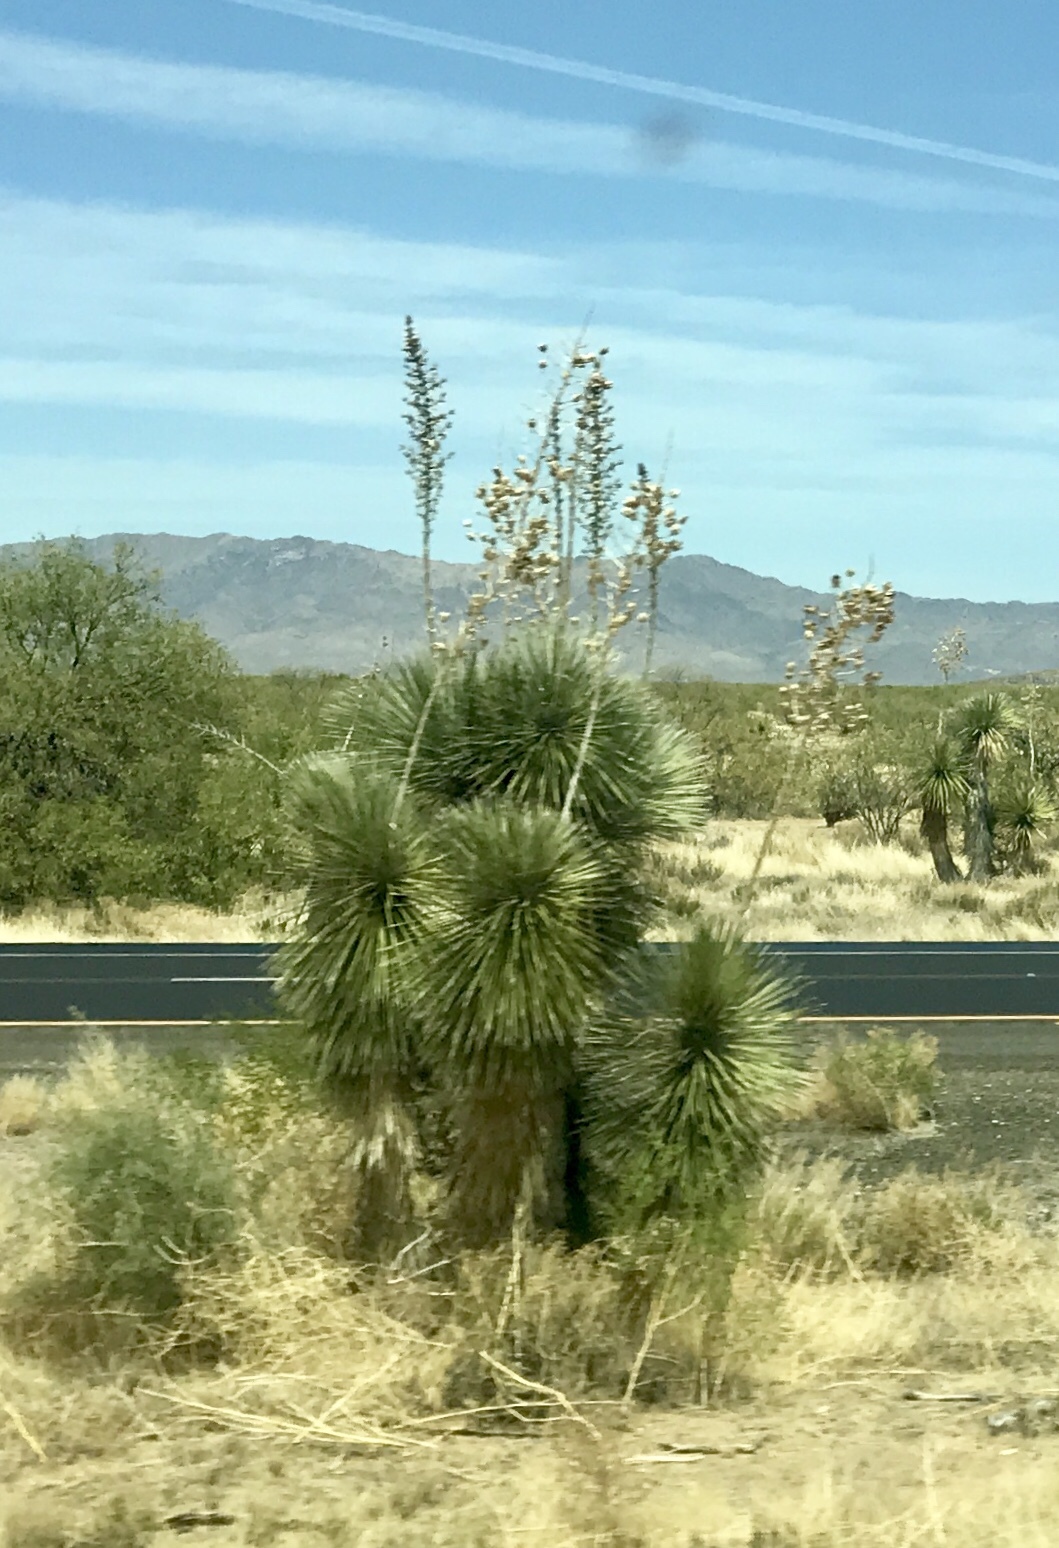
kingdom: Plantae
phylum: Tracheophyta
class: Liliopsida
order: Asparagales
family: Asparagaceae
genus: Yucca
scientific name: Yucca elata
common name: Palmella
